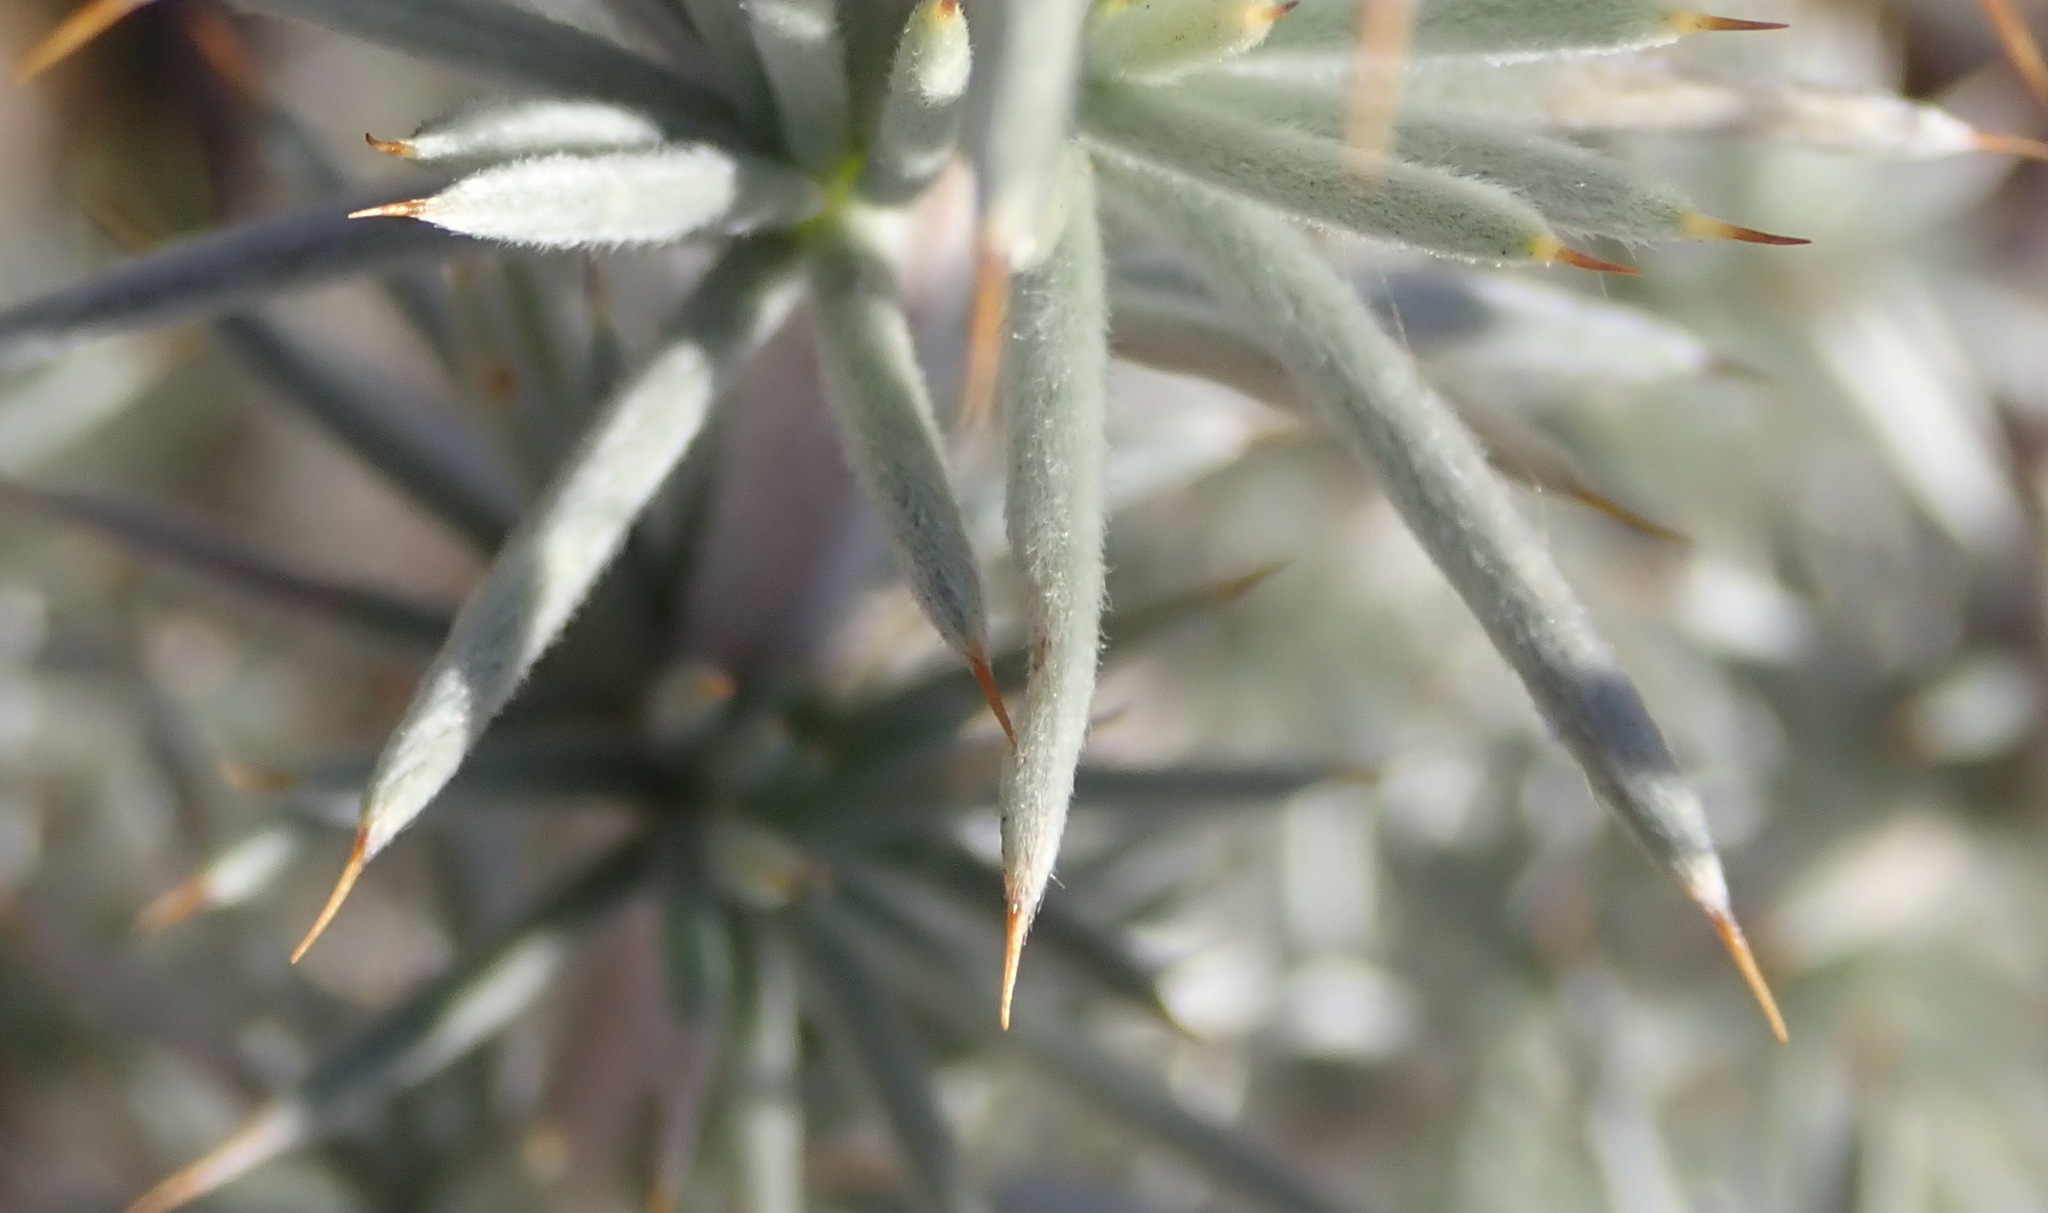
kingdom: Plantae
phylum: Tracheophyta
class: Magnoliopsida
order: Fabales
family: Fabaceae
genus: Aspalathus
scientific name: Aspalathus hystrix
